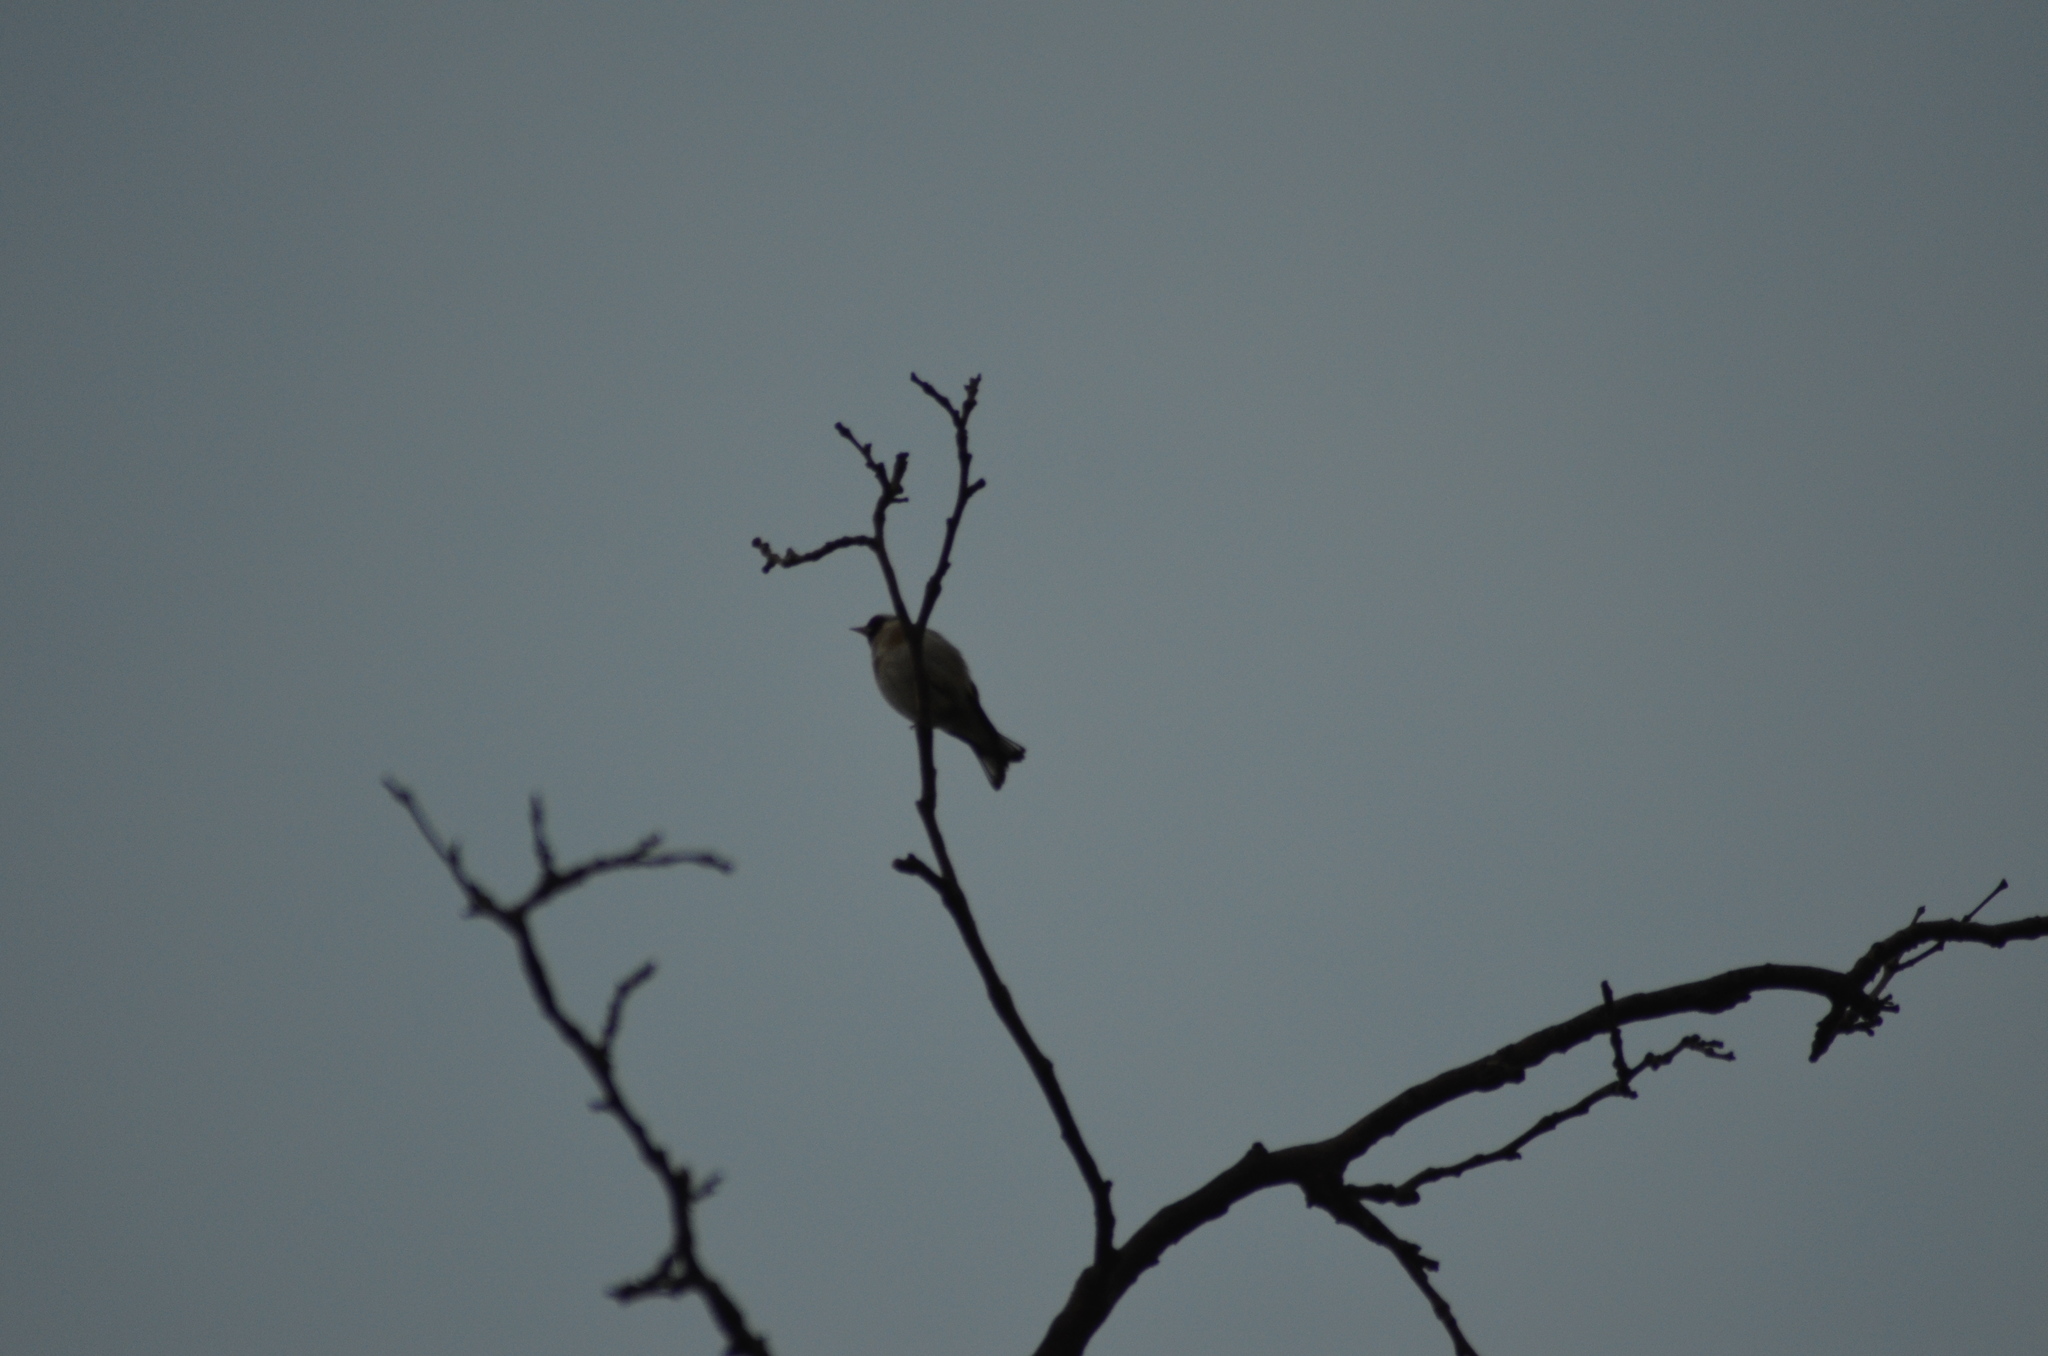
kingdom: Animalia
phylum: Chordata
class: Aves
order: Passeriformes
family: Fringillidae
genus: Carduelis
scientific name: Carduelis carduelis
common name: European goldfinch
